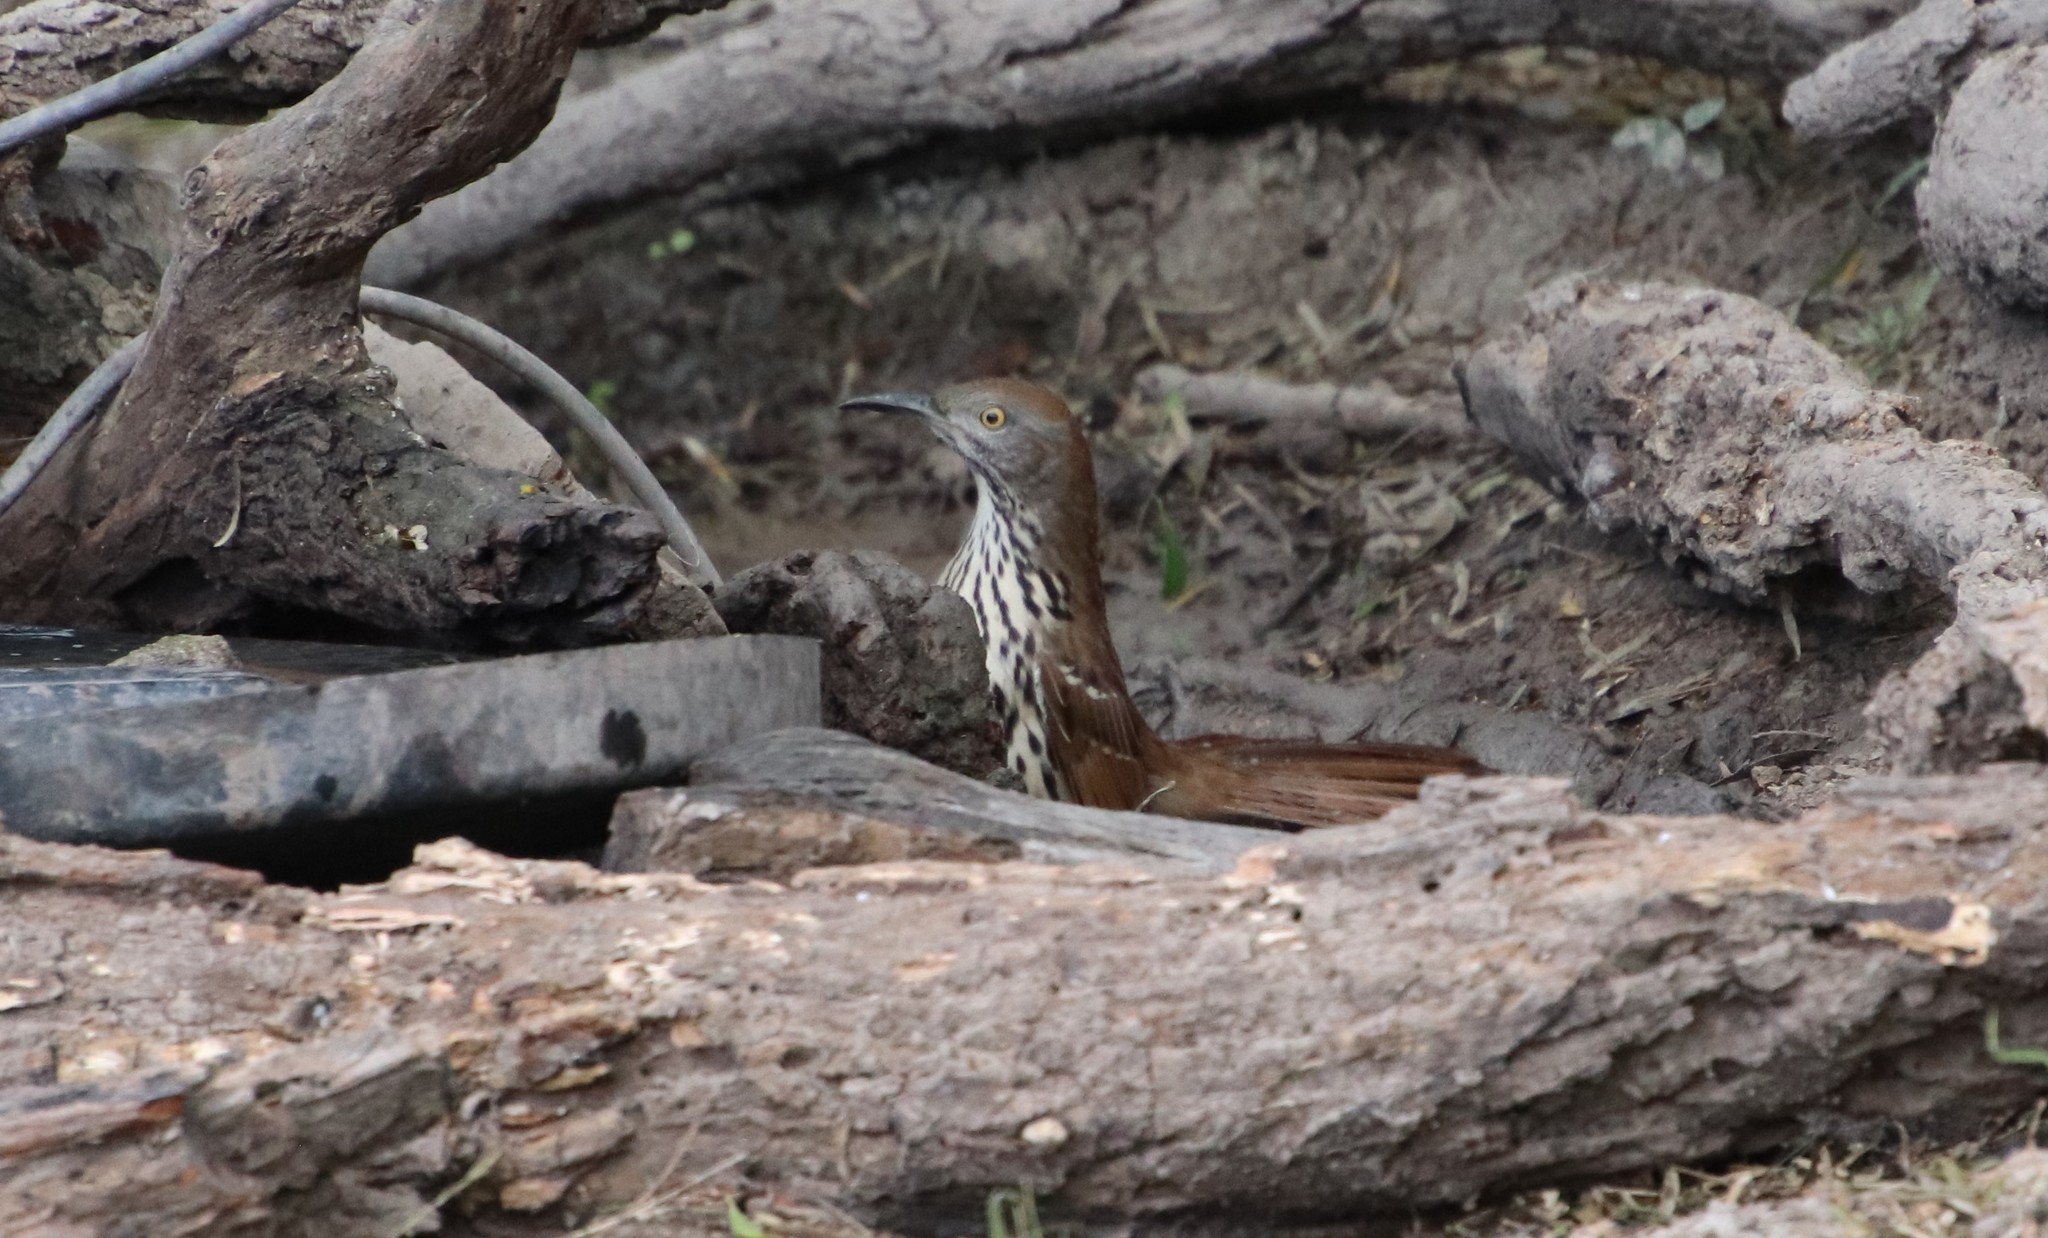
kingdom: Animalia
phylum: Chordata
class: Aves
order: Passeriformes
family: Mimidae
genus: Toxostoma
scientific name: Toxostoma longirostre
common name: Long-billed thrasher
